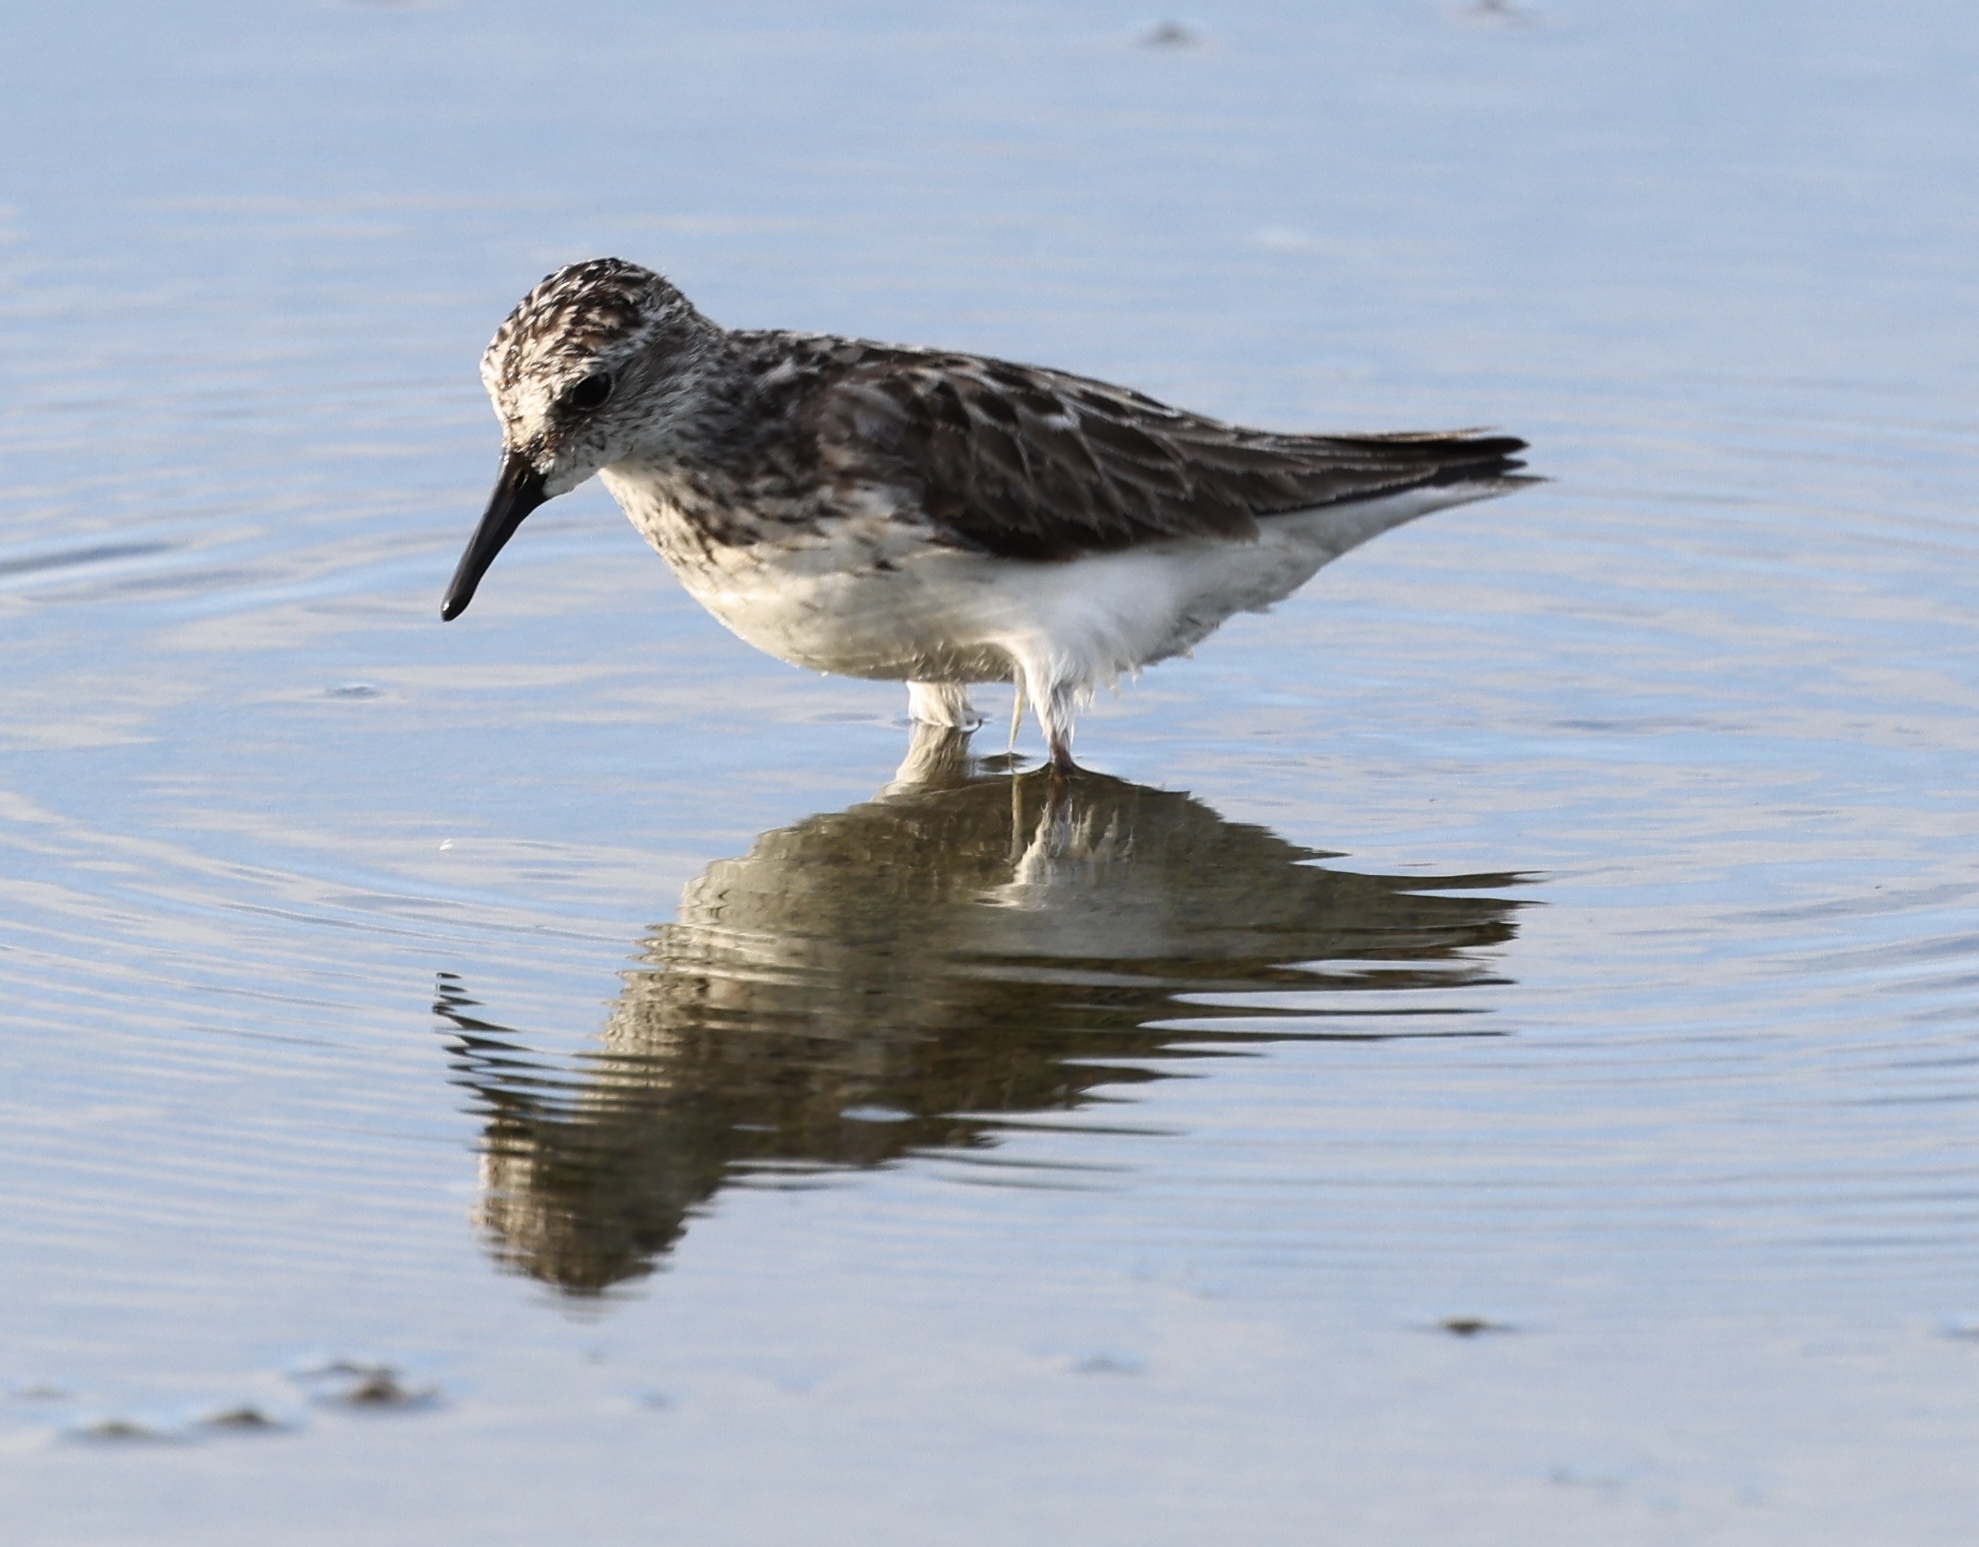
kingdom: Animalia
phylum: Chordata
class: Aves
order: Charadriiformes
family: Scolopacidae
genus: Calidris
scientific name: Calidris pusilla
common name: Semipalmated sandpiper
